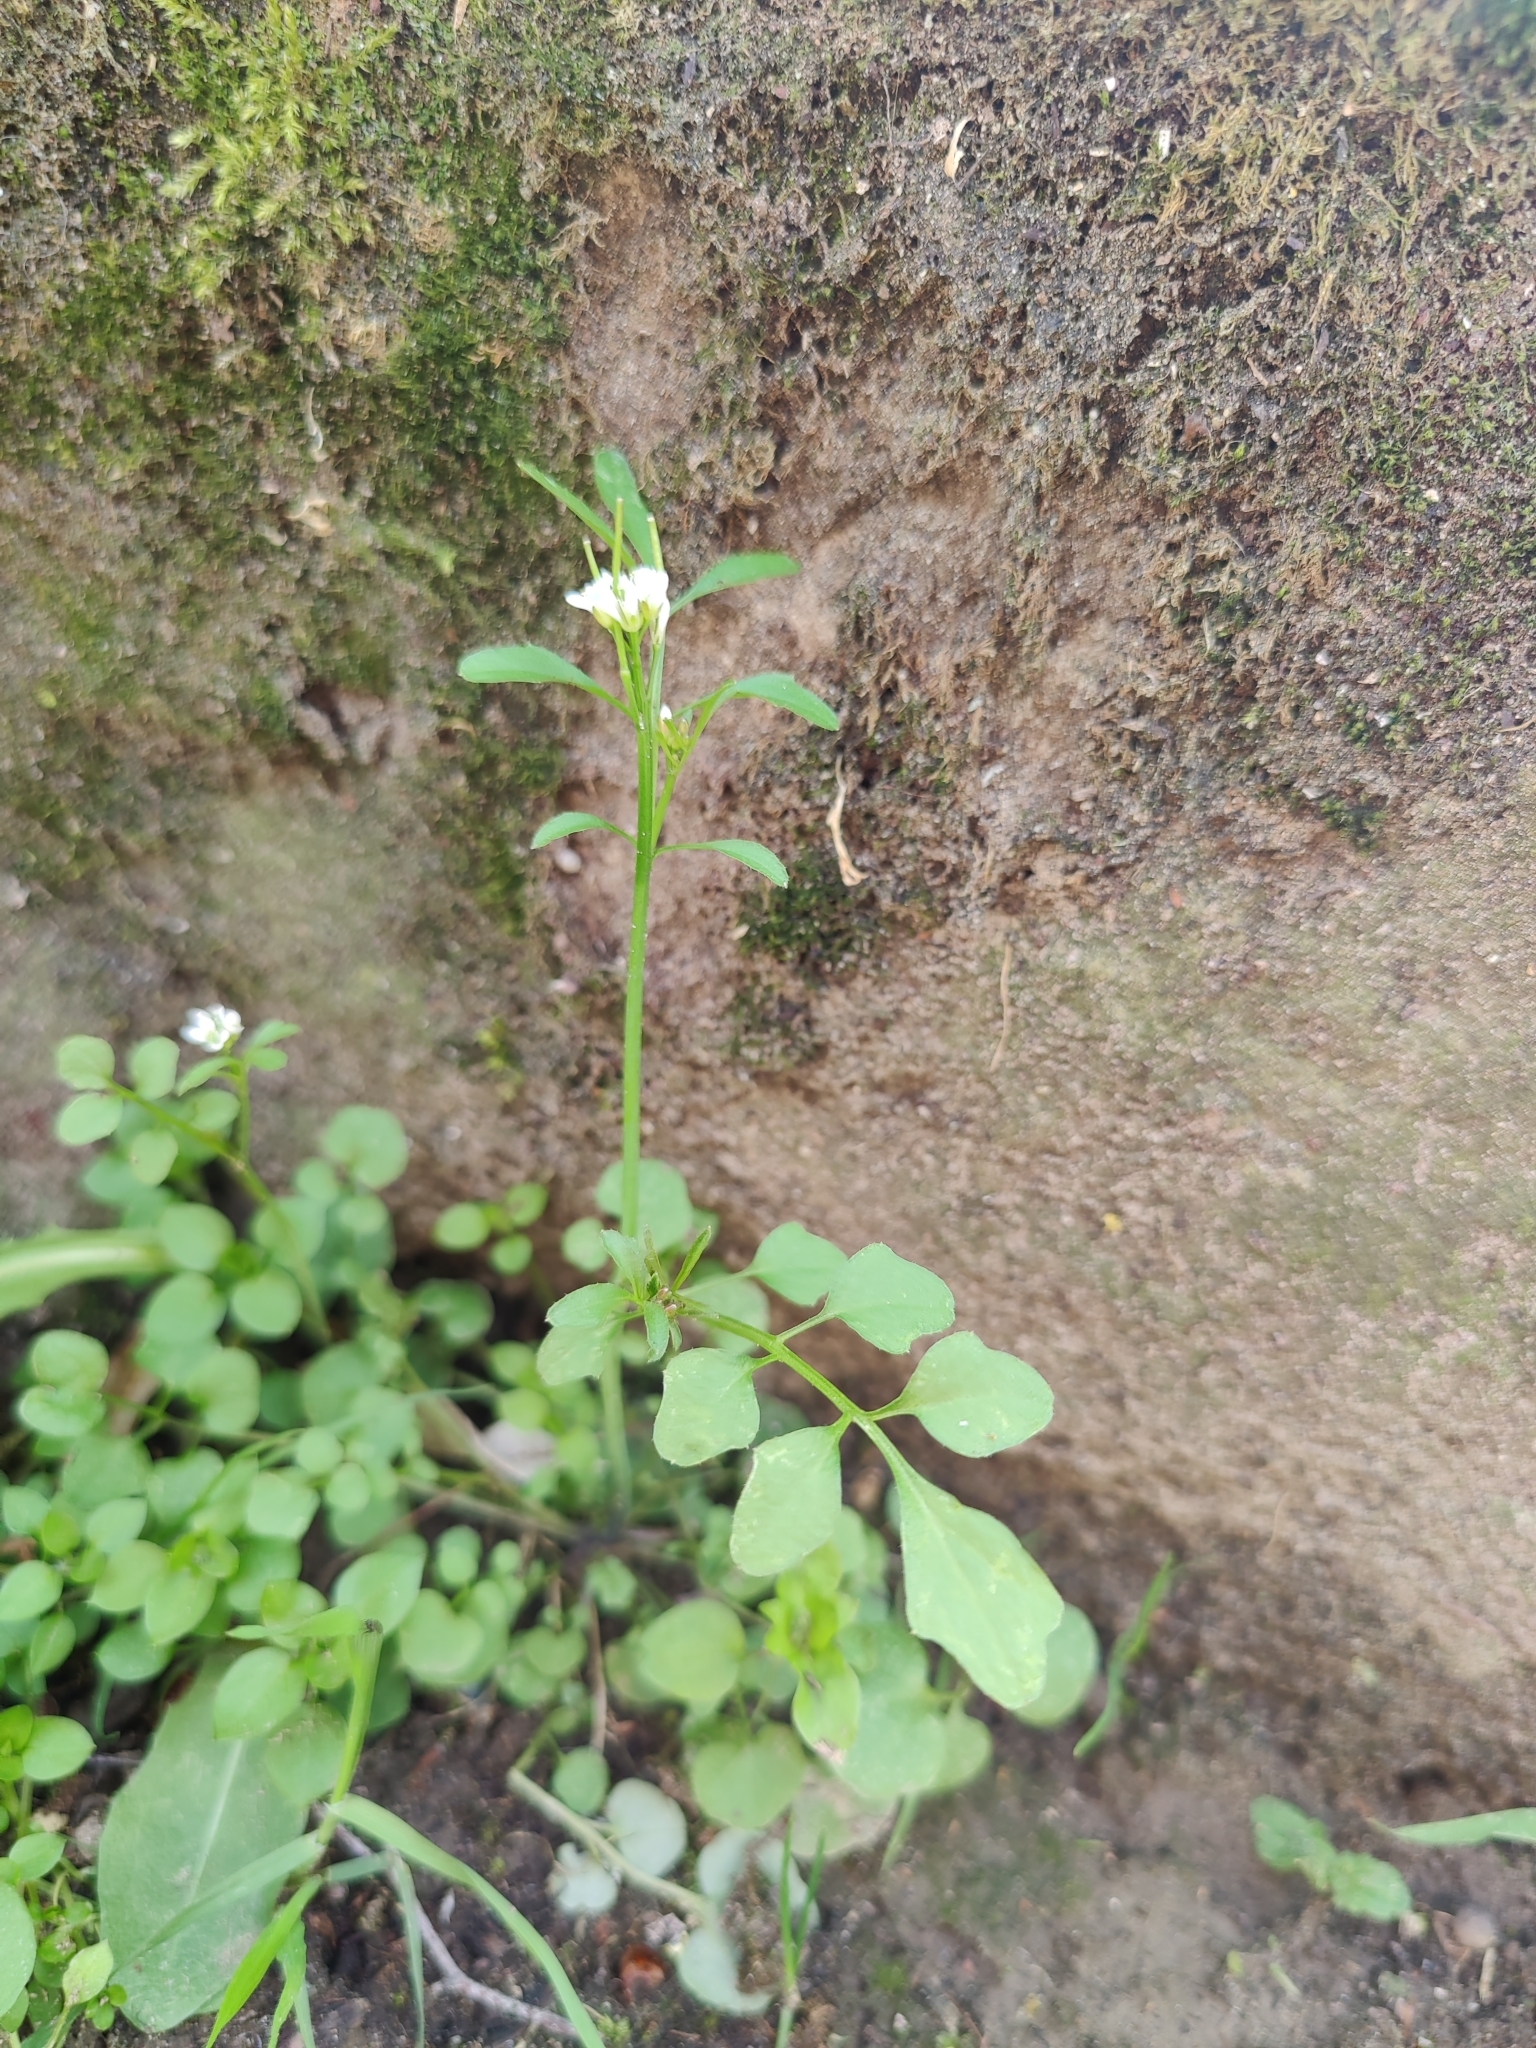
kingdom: Plantae
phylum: Tracheophyta
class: Magnoliopsida
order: Brassicales
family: Brassicaceae
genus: Cardamine
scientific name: Cardamine hirsuta
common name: Hairy bittercress
